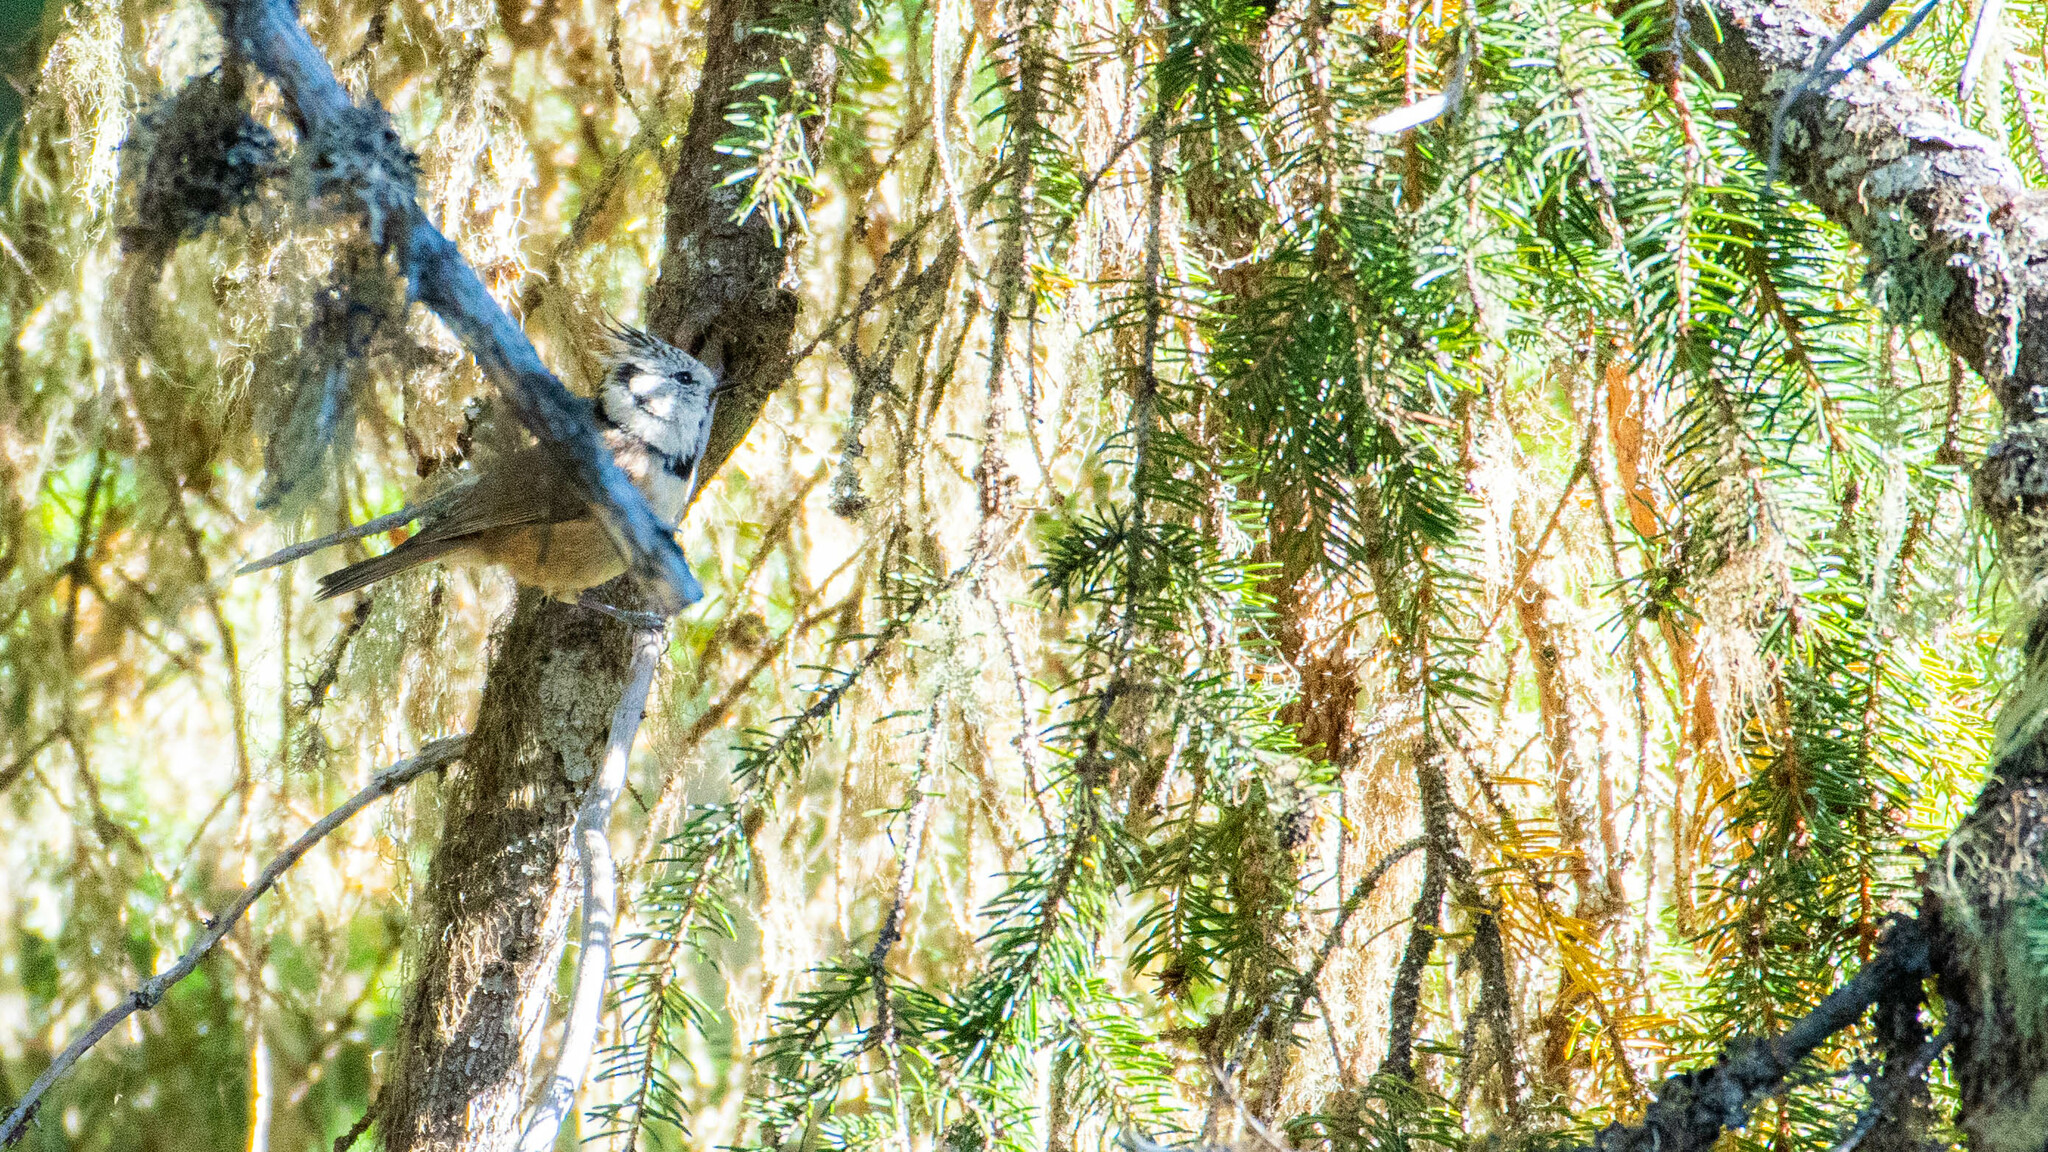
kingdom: Animalia
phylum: Chordata
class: Aves
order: Passeriformes
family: Paridae
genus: Lophophanes
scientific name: Lophophanes cristatus
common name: European crested tit
